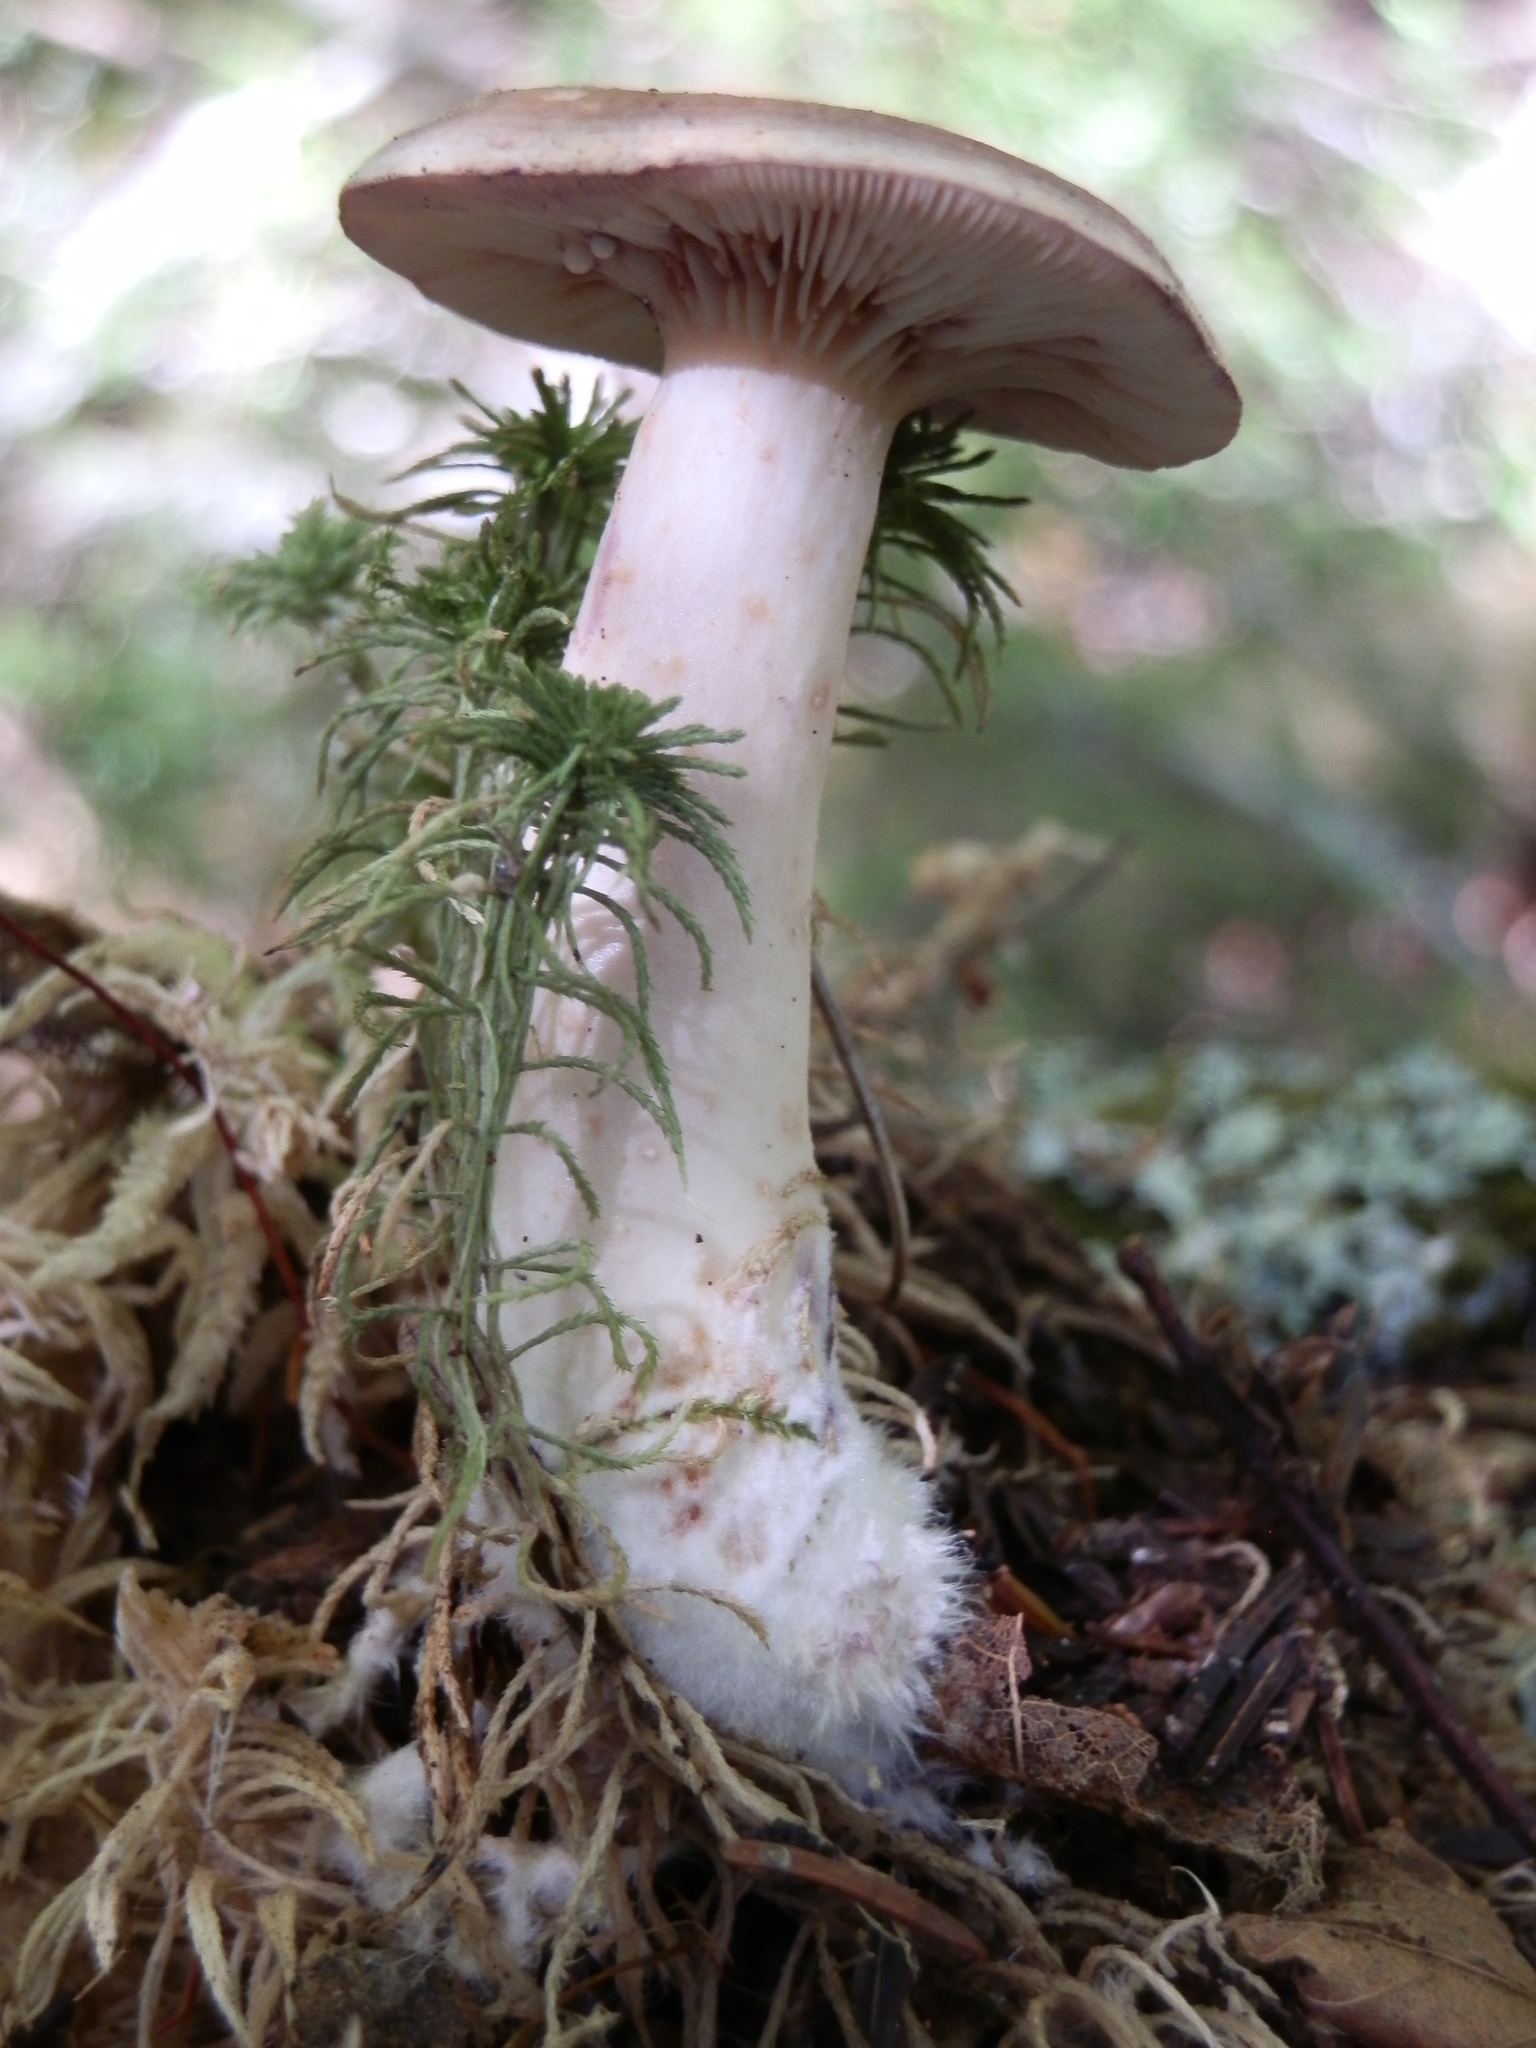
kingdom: Fungi
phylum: Basidiomycota
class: Agaricomycetes
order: Russulales
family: Russulaceae
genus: Lactarius
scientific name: Lactarius uvidus
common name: Shiner milkcap
